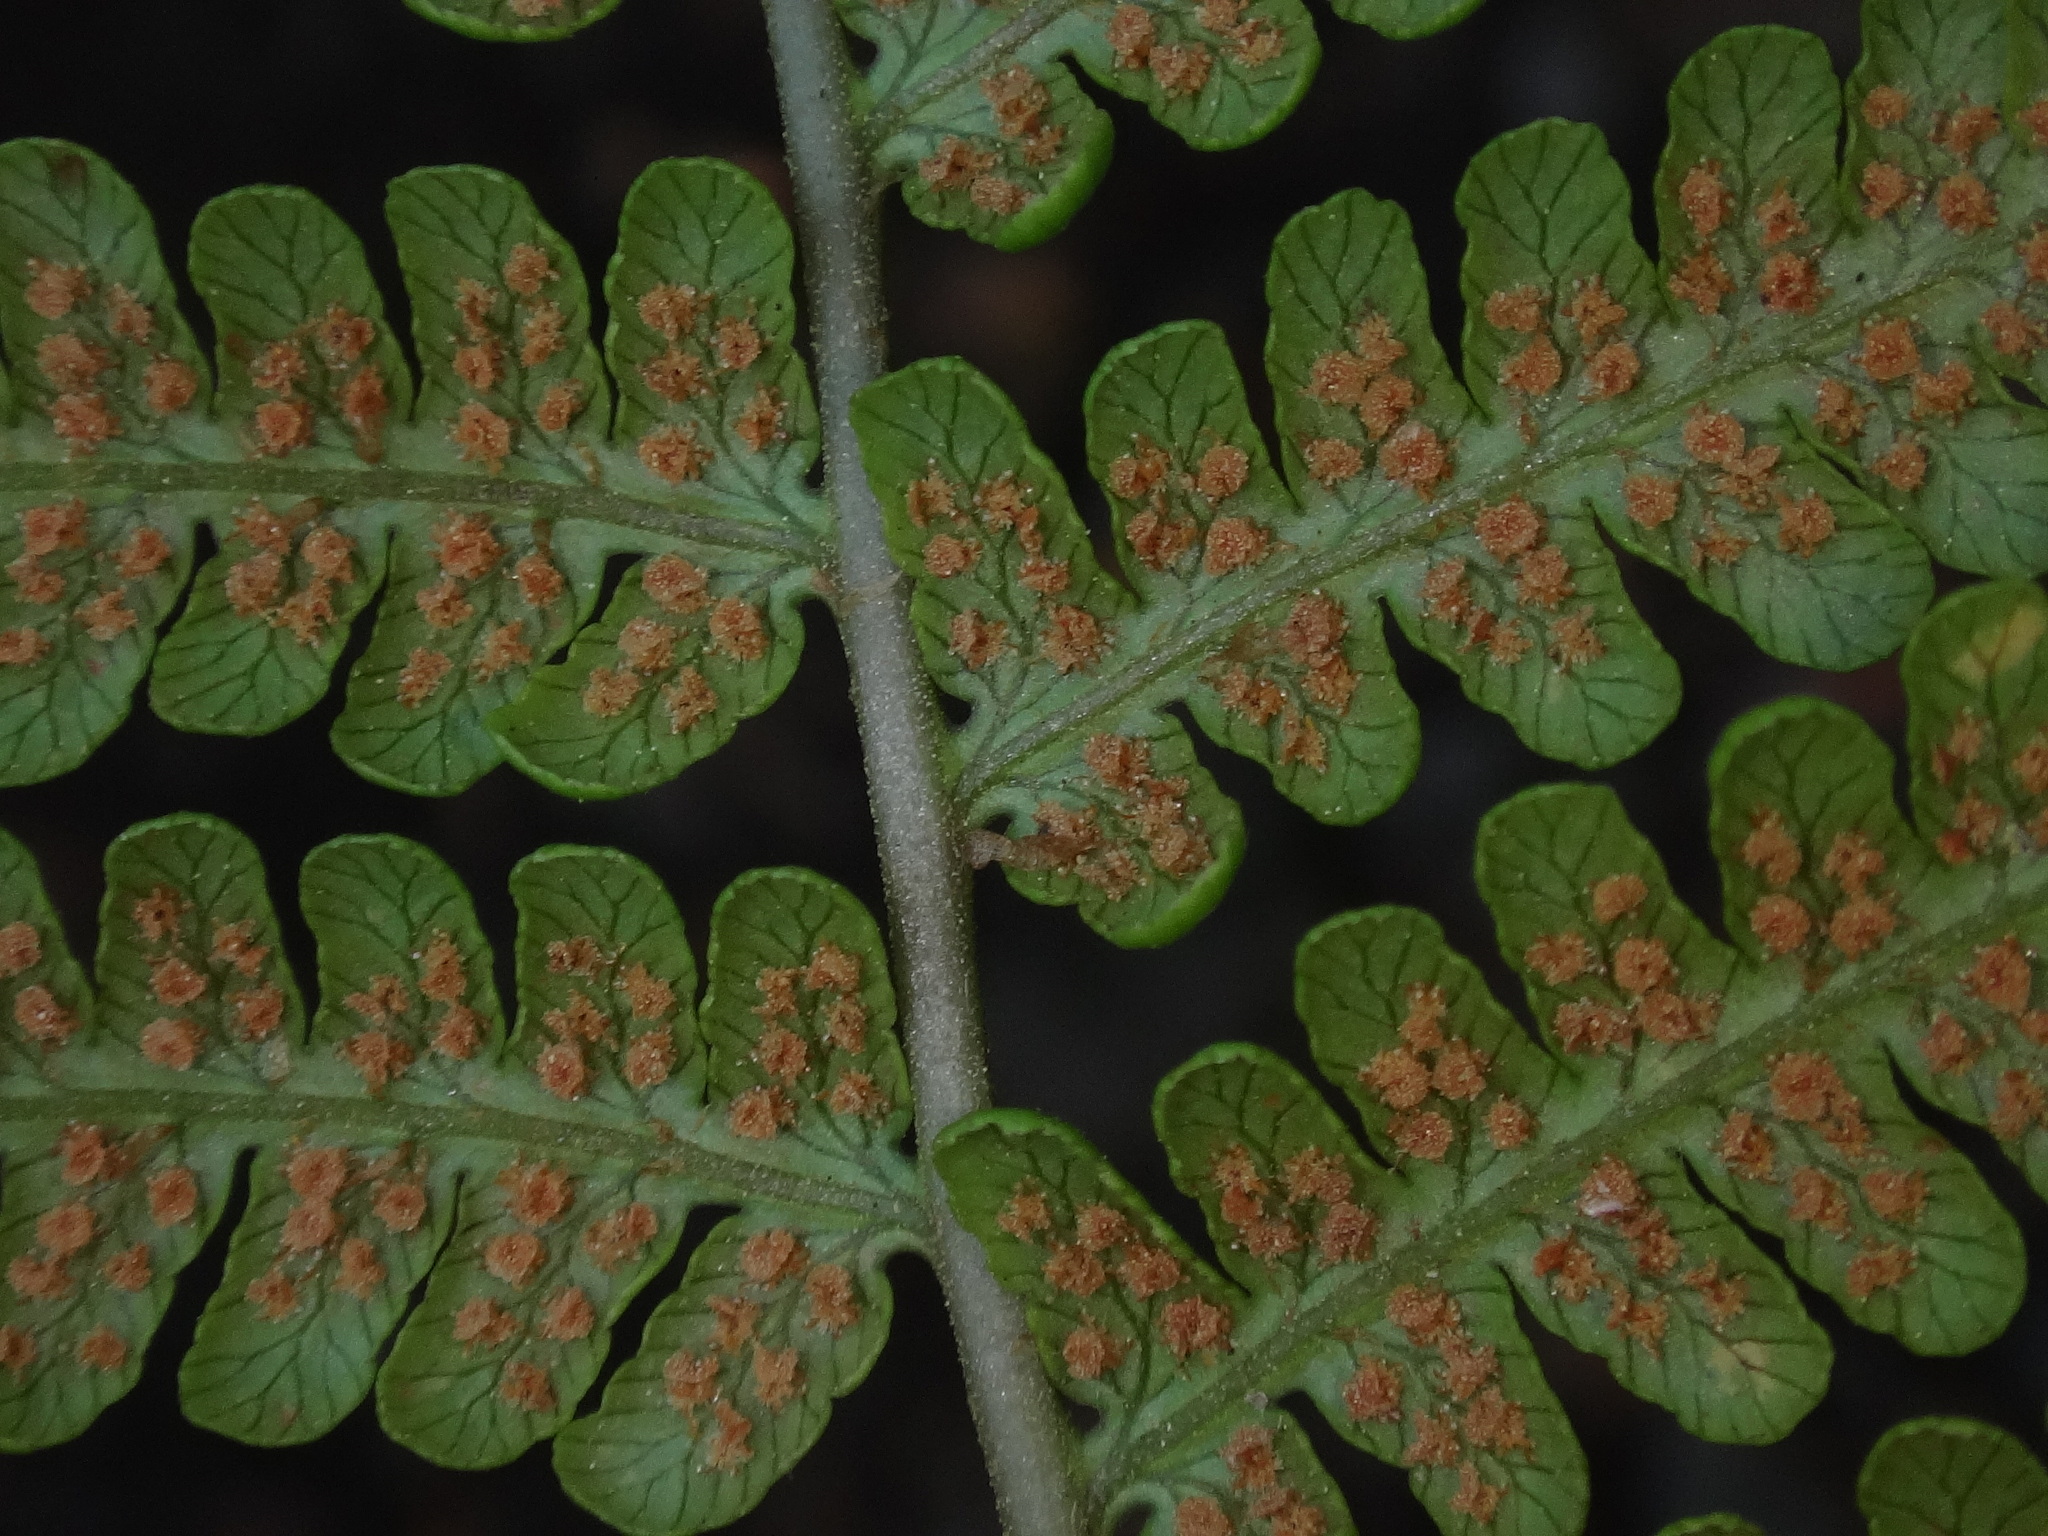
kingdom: Plantae
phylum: Tracheophyta
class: Polypodiopsida
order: Polypodiales
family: Dryopteridaceae
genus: Dryopteris
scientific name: Dryopteris oligodonta
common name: Canarian male-fern
